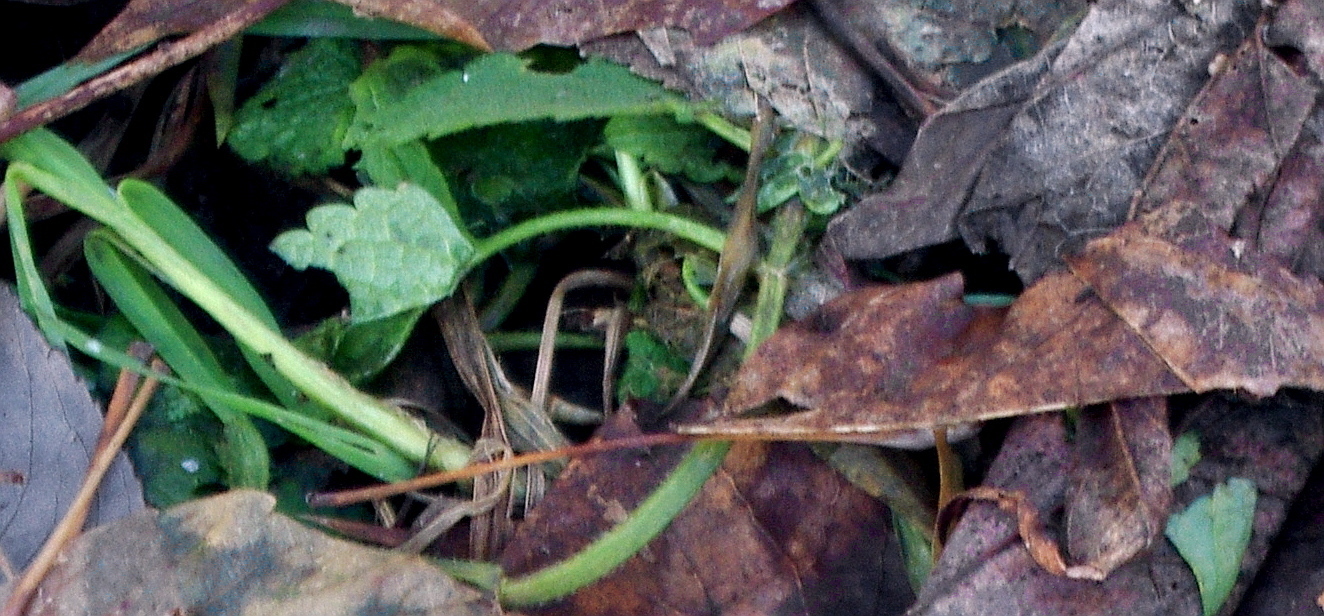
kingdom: Plantae
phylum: Tracheophyta
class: Magnoliopsida
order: Lamiales
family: Lamiaceae
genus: Lamium
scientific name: Lamium album
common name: White dead-nettle
